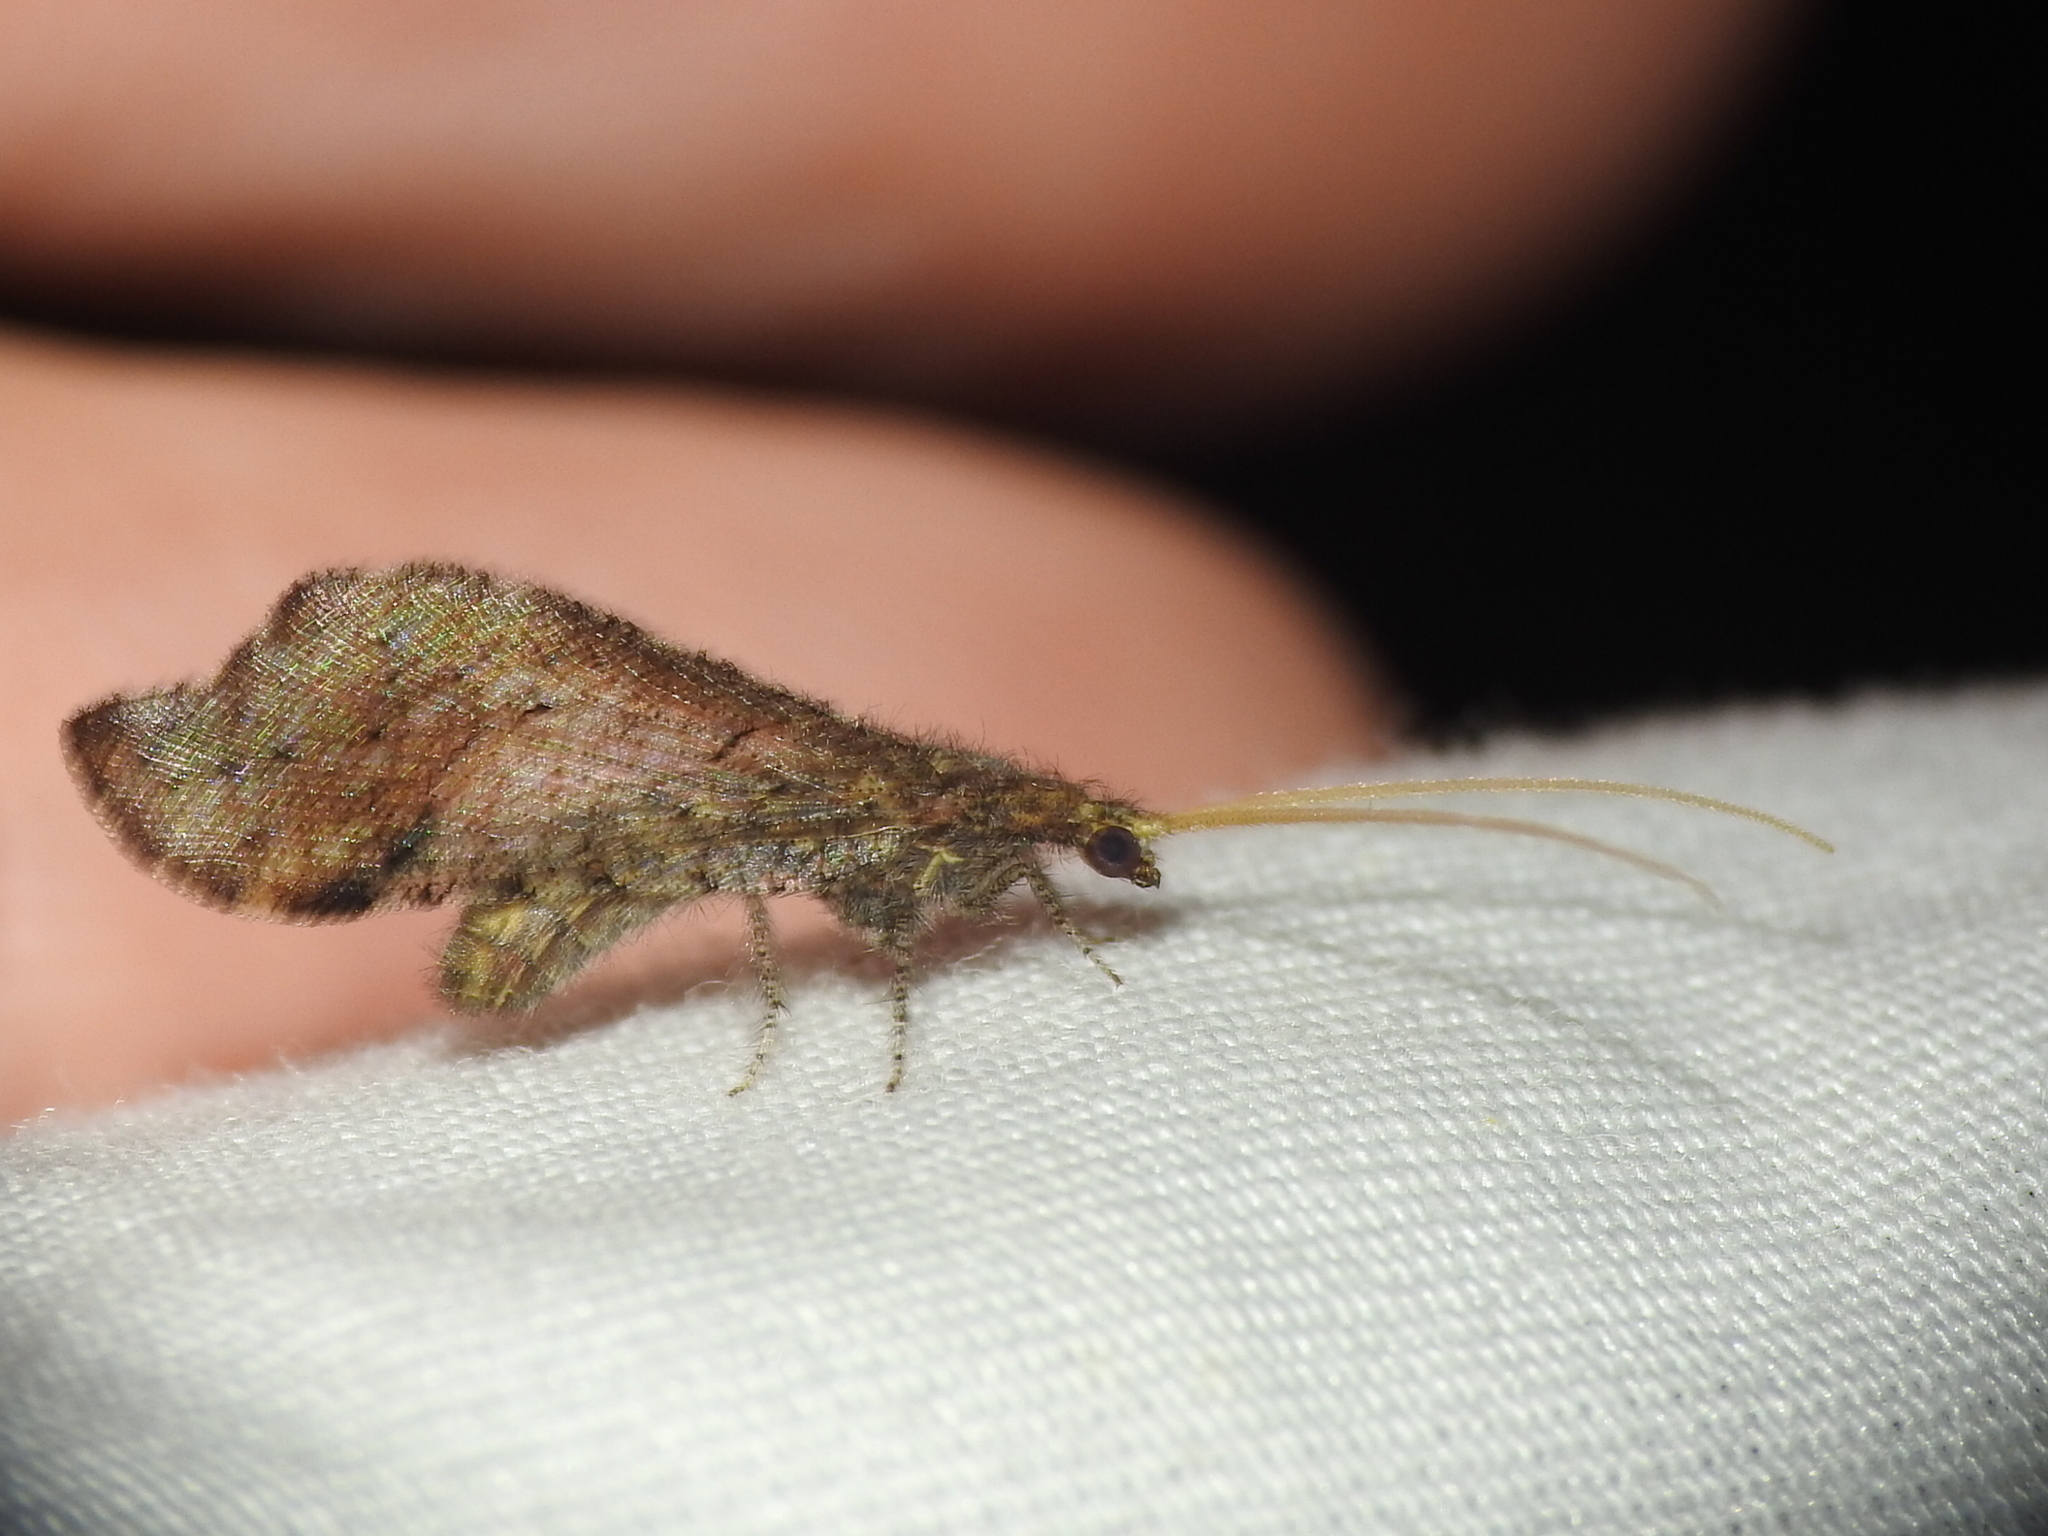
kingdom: Animalia
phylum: Arthropoda
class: Insecta
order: Neuroptera
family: Berothidae
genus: Lomamyia
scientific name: Lomamyia squamosa
